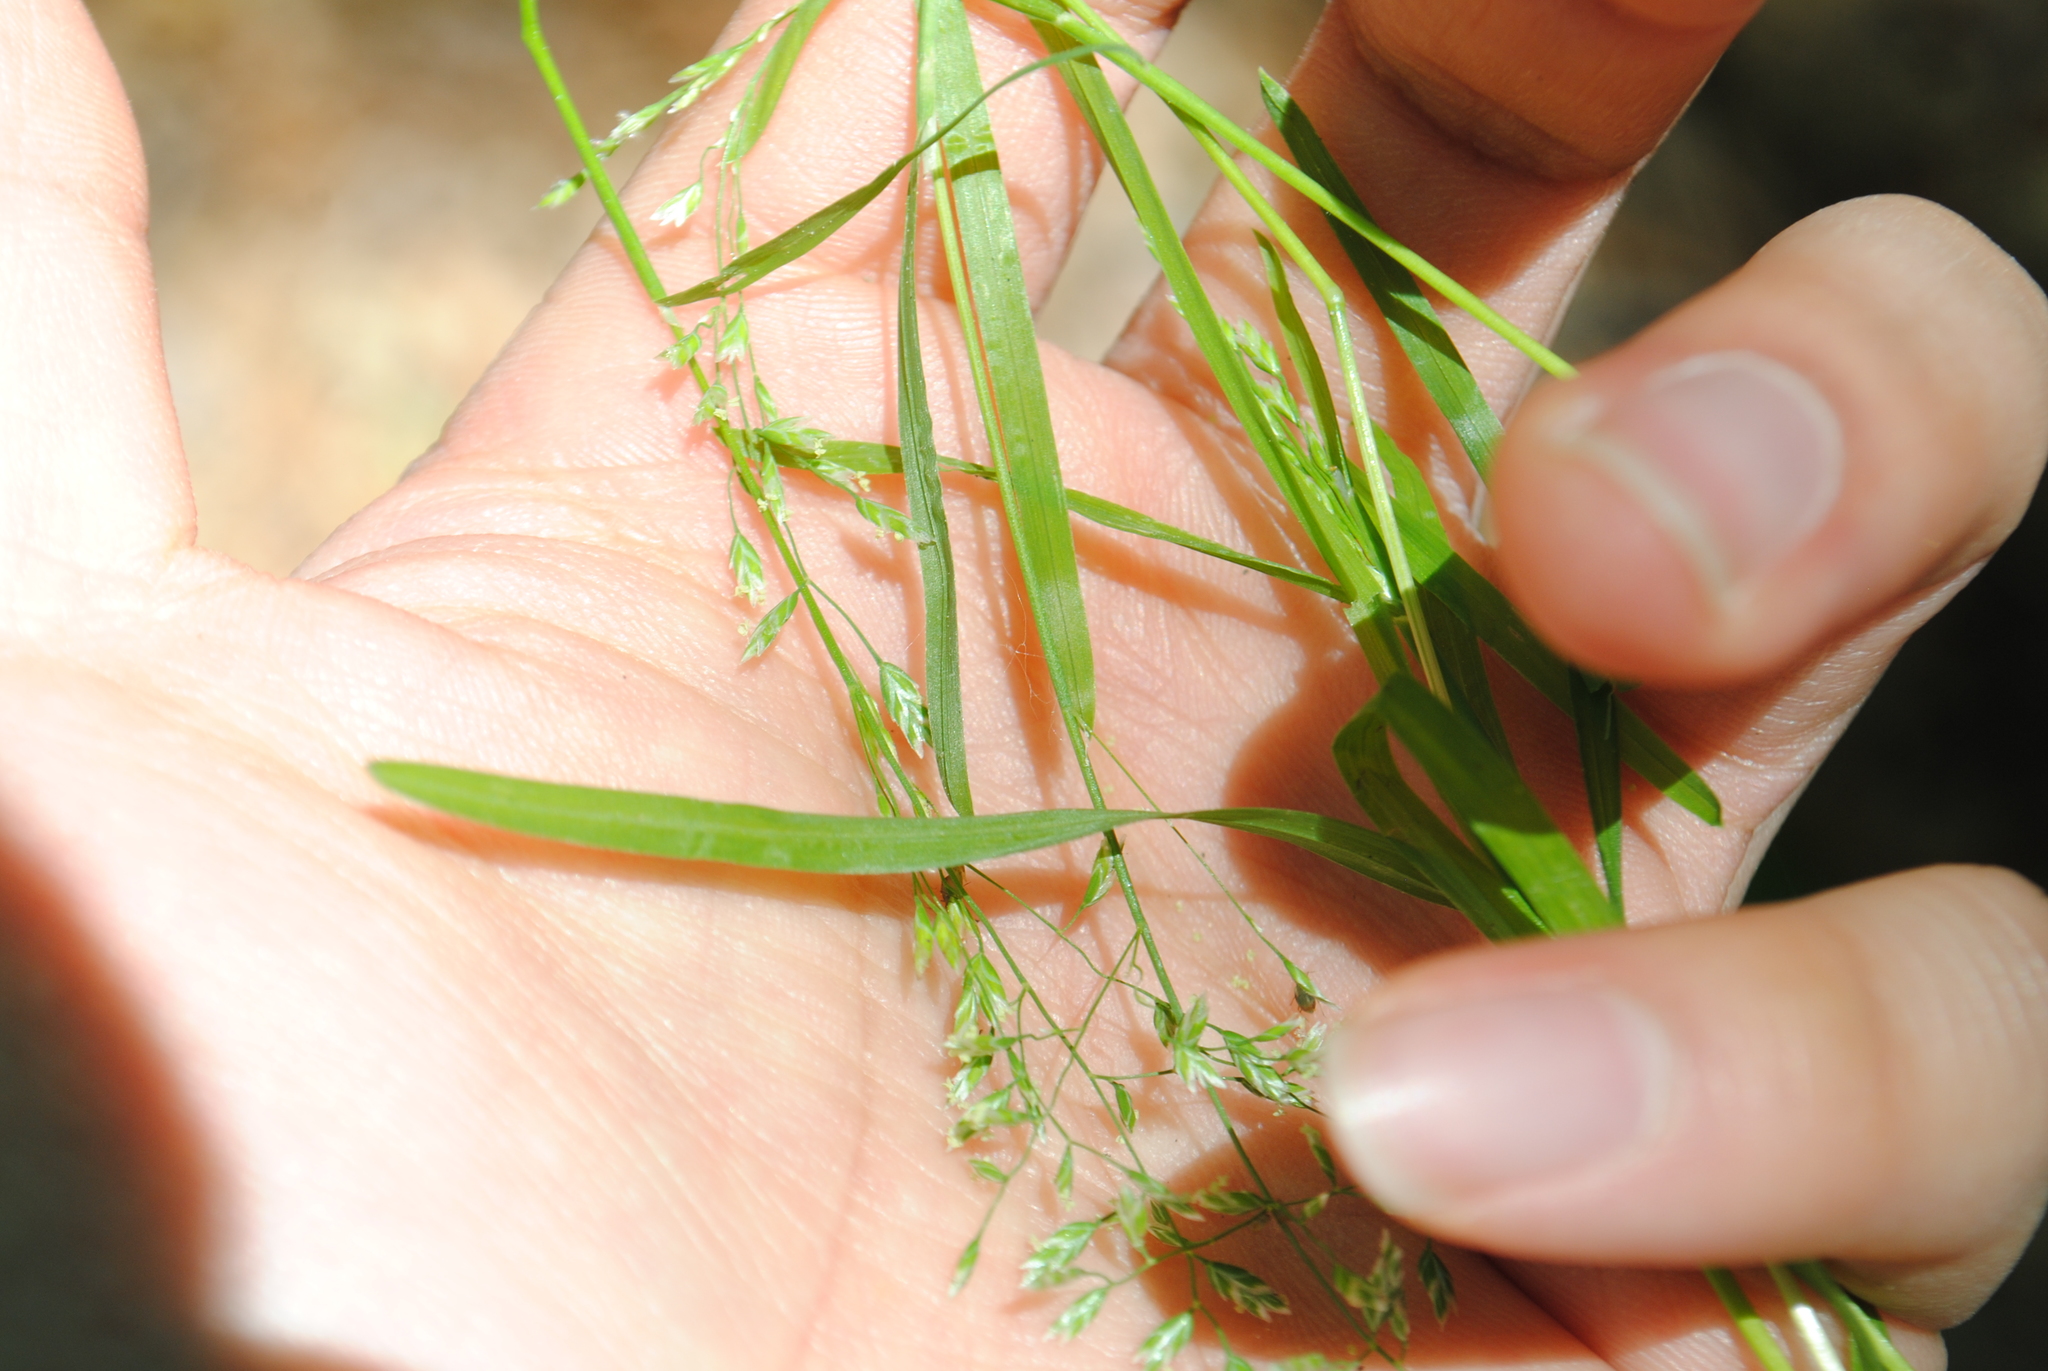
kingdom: Plantae
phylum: Tracheophyta
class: Liliopsida
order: Poales
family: Poaceae
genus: Poa
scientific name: Poa annua
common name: Annual bluegrass
